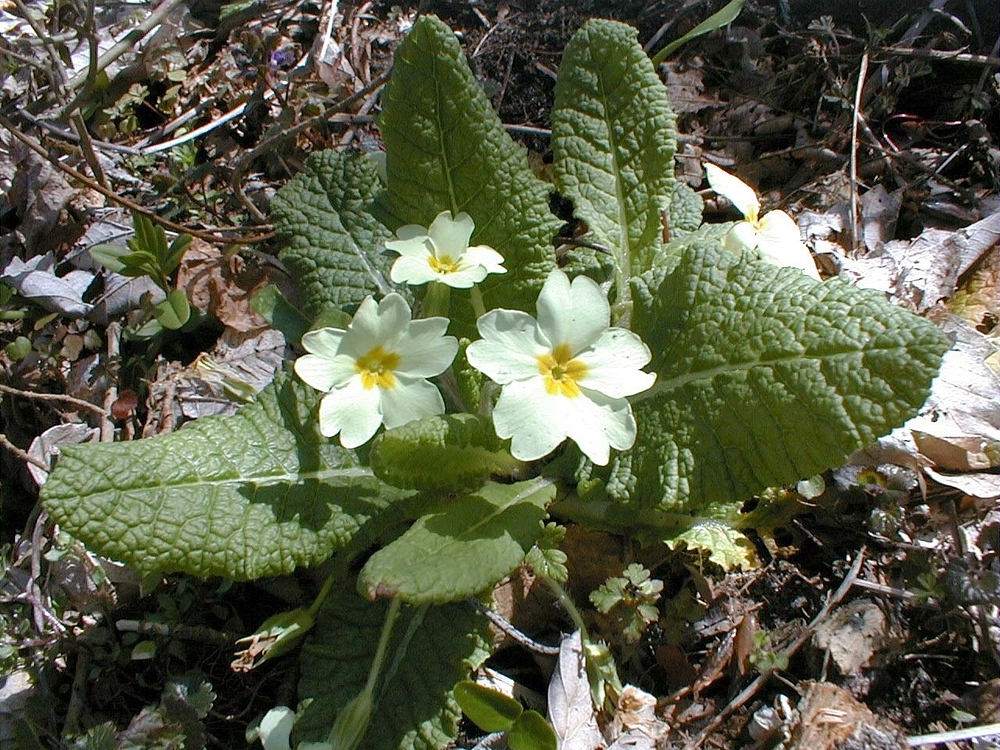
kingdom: Plantae
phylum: Tracheophyta
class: Magnoliopsida
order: Ericales
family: Primulaceae
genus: Primula
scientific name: Primula vulgaris
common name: Primrose
